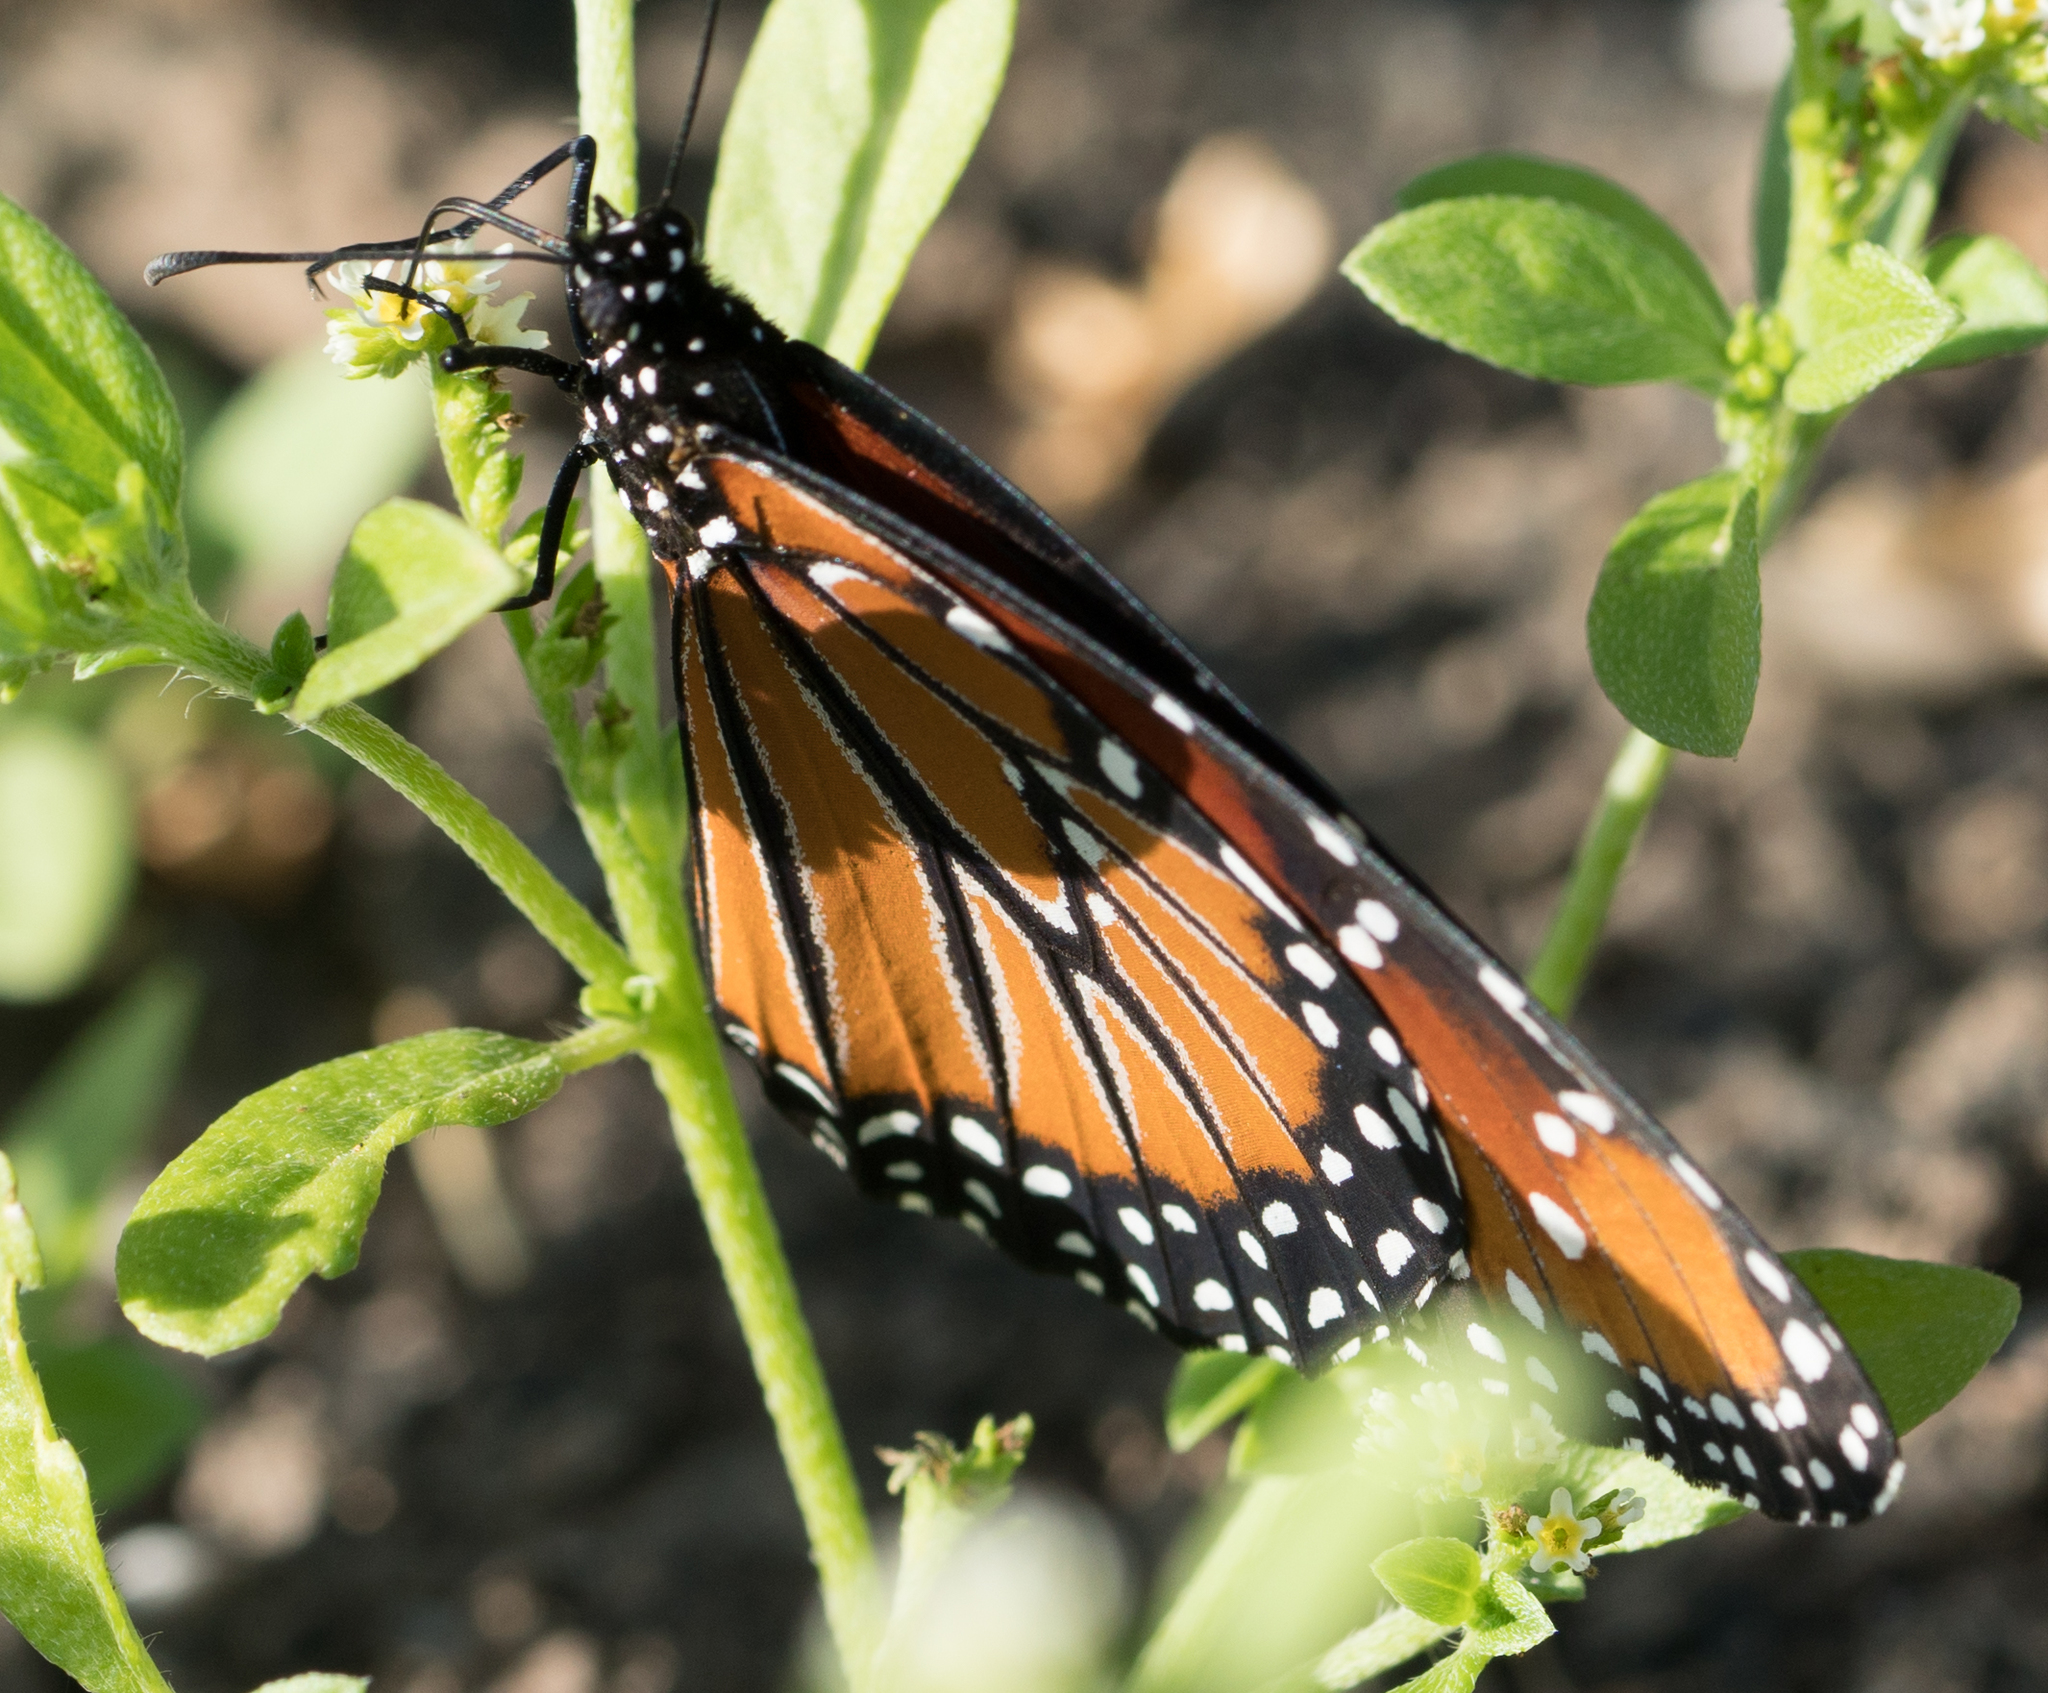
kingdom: Animalia
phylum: Arthropoda
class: Insecta
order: Lepidoptera
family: Nymphalidae
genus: Danaus
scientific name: Danaus gilippus
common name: Queen
